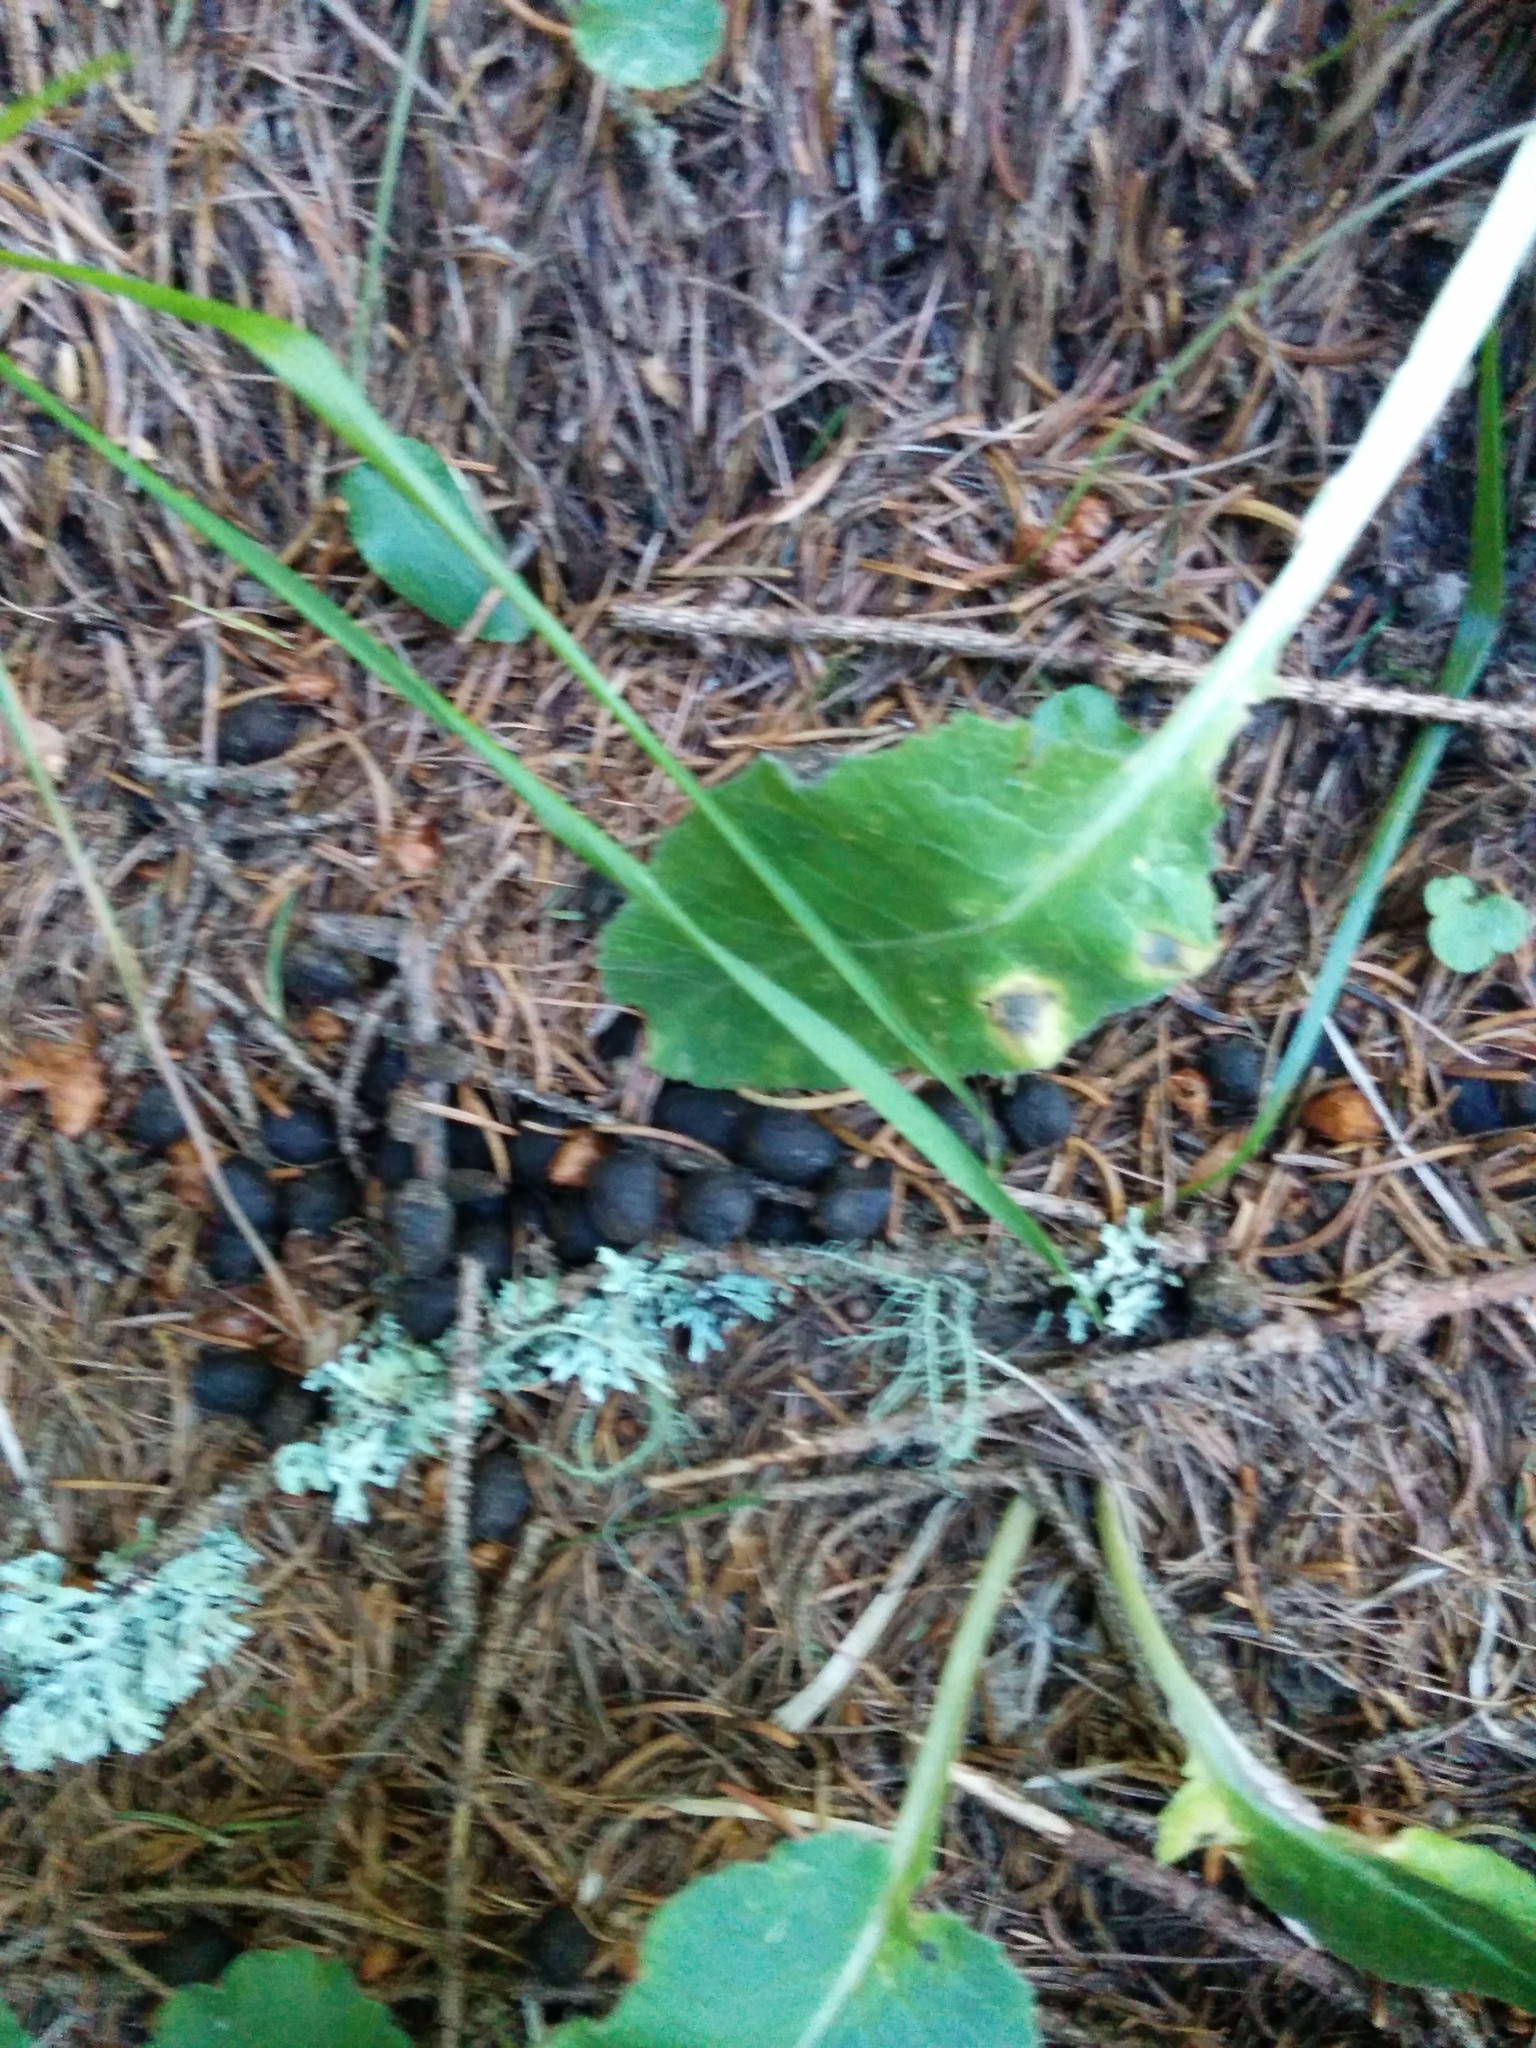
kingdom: Animalia
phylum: Chordata
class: Mammalia
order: Artiodactyla
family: Bovidae
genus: Rupicapra
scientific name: Rupicapra rupicapra
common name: Chamois
